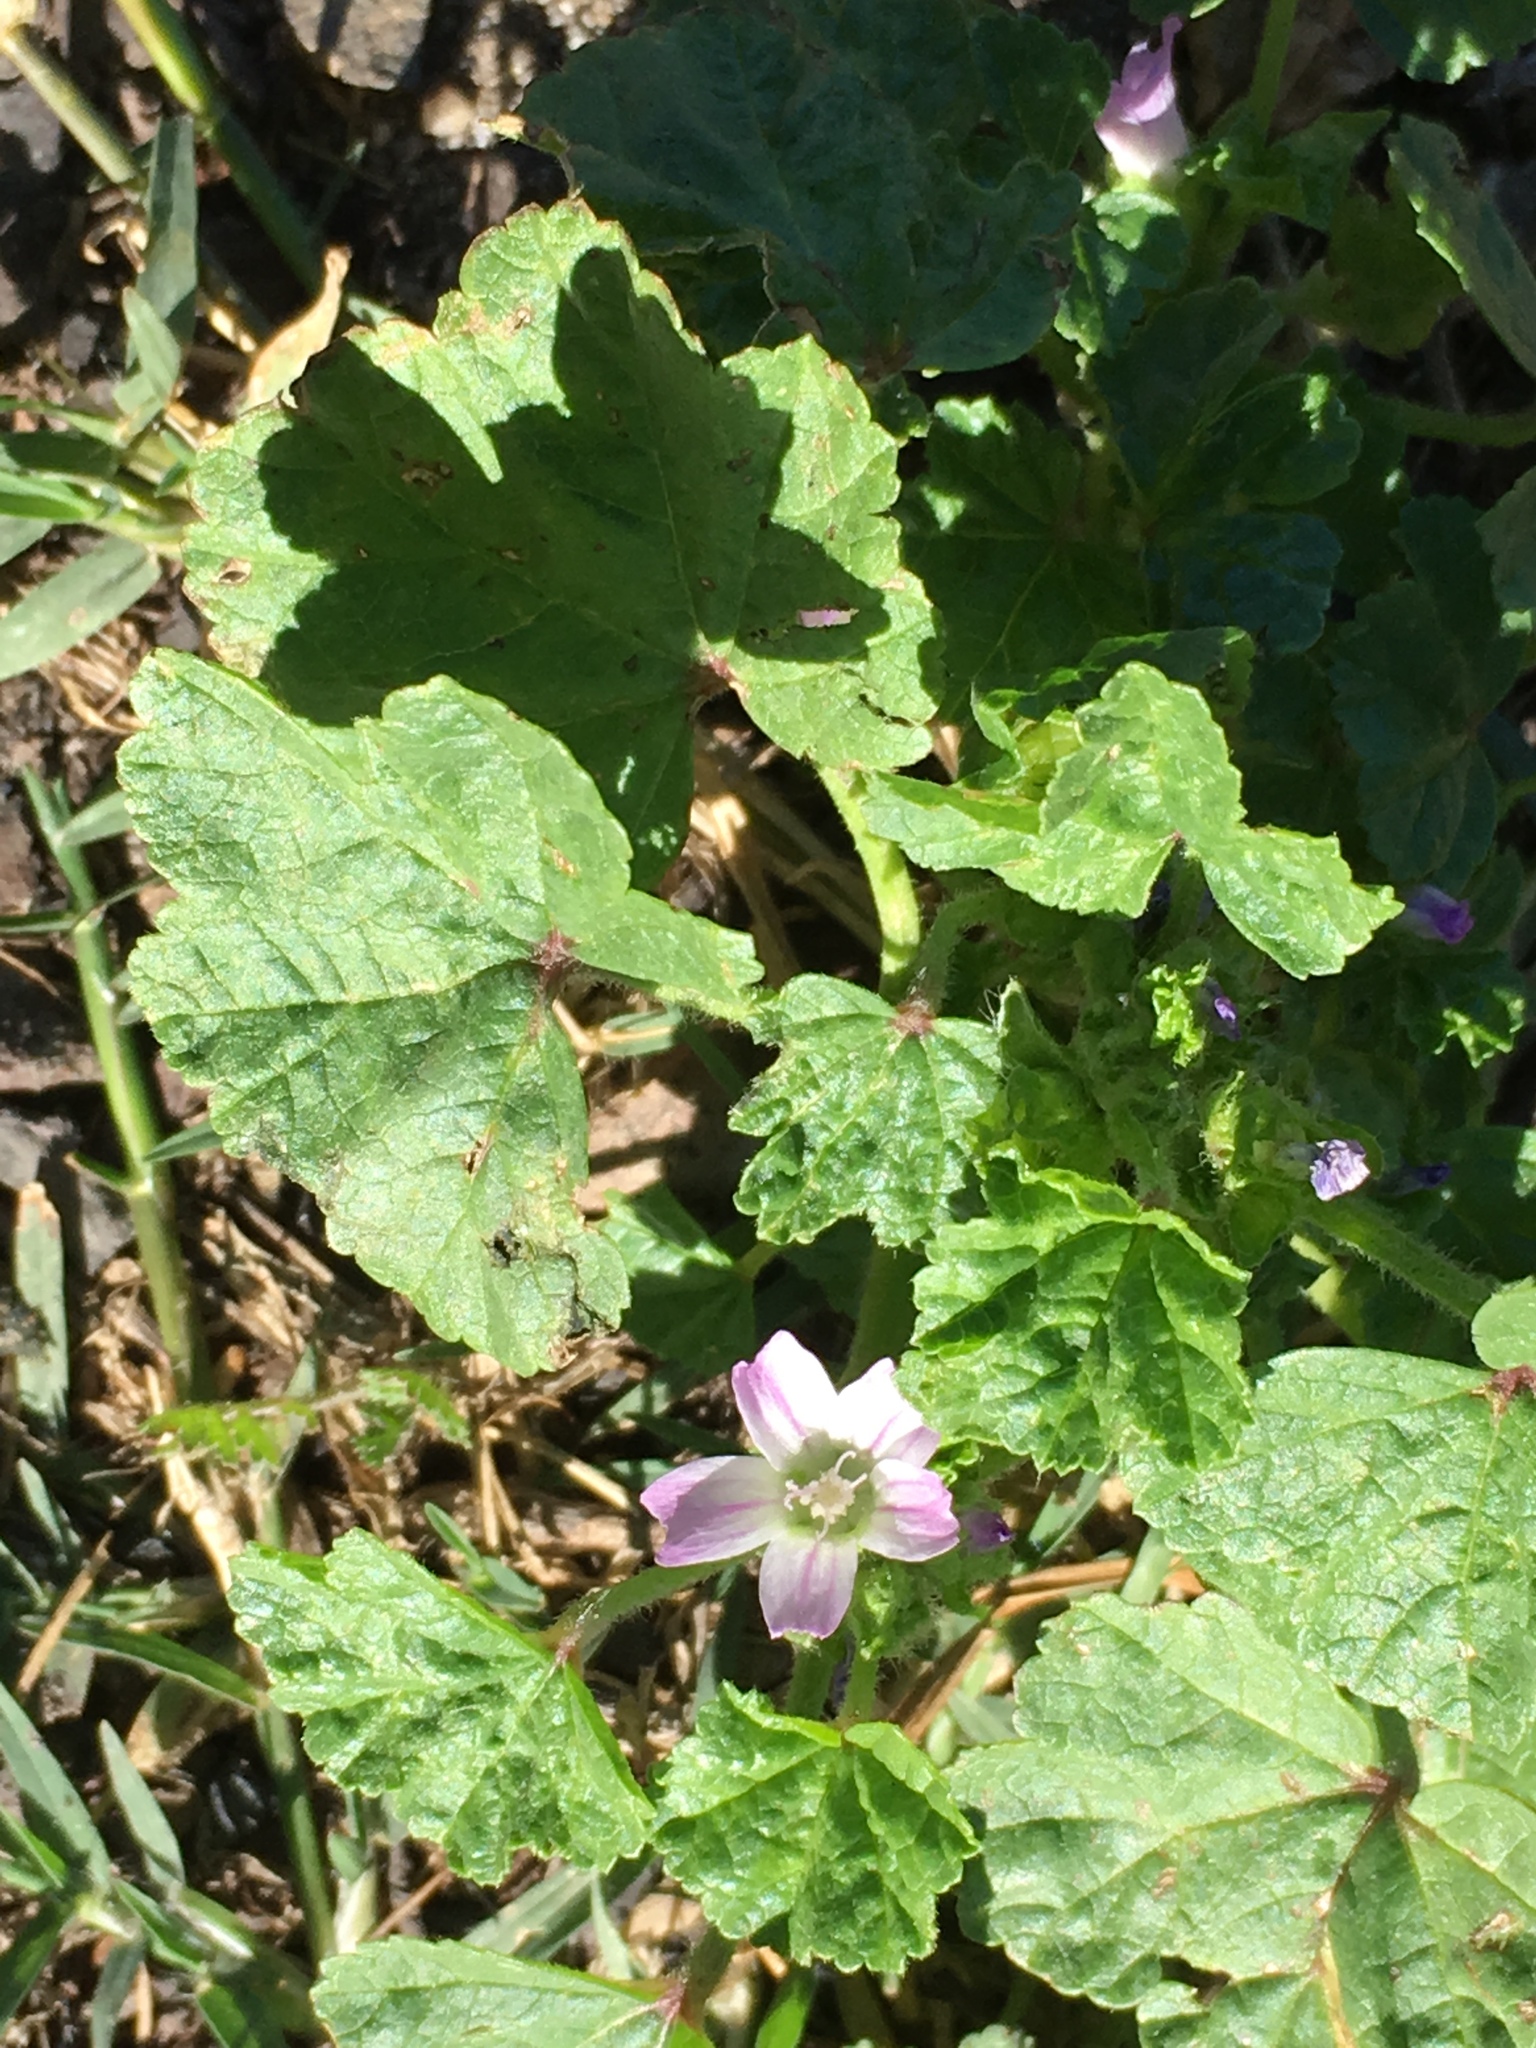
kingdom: Plantae
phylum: Tracheophyta
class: Magnoliopsida
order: Malvales
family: Malvaceae
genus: Malva
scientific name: Malva parviflora
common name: Least mallow
